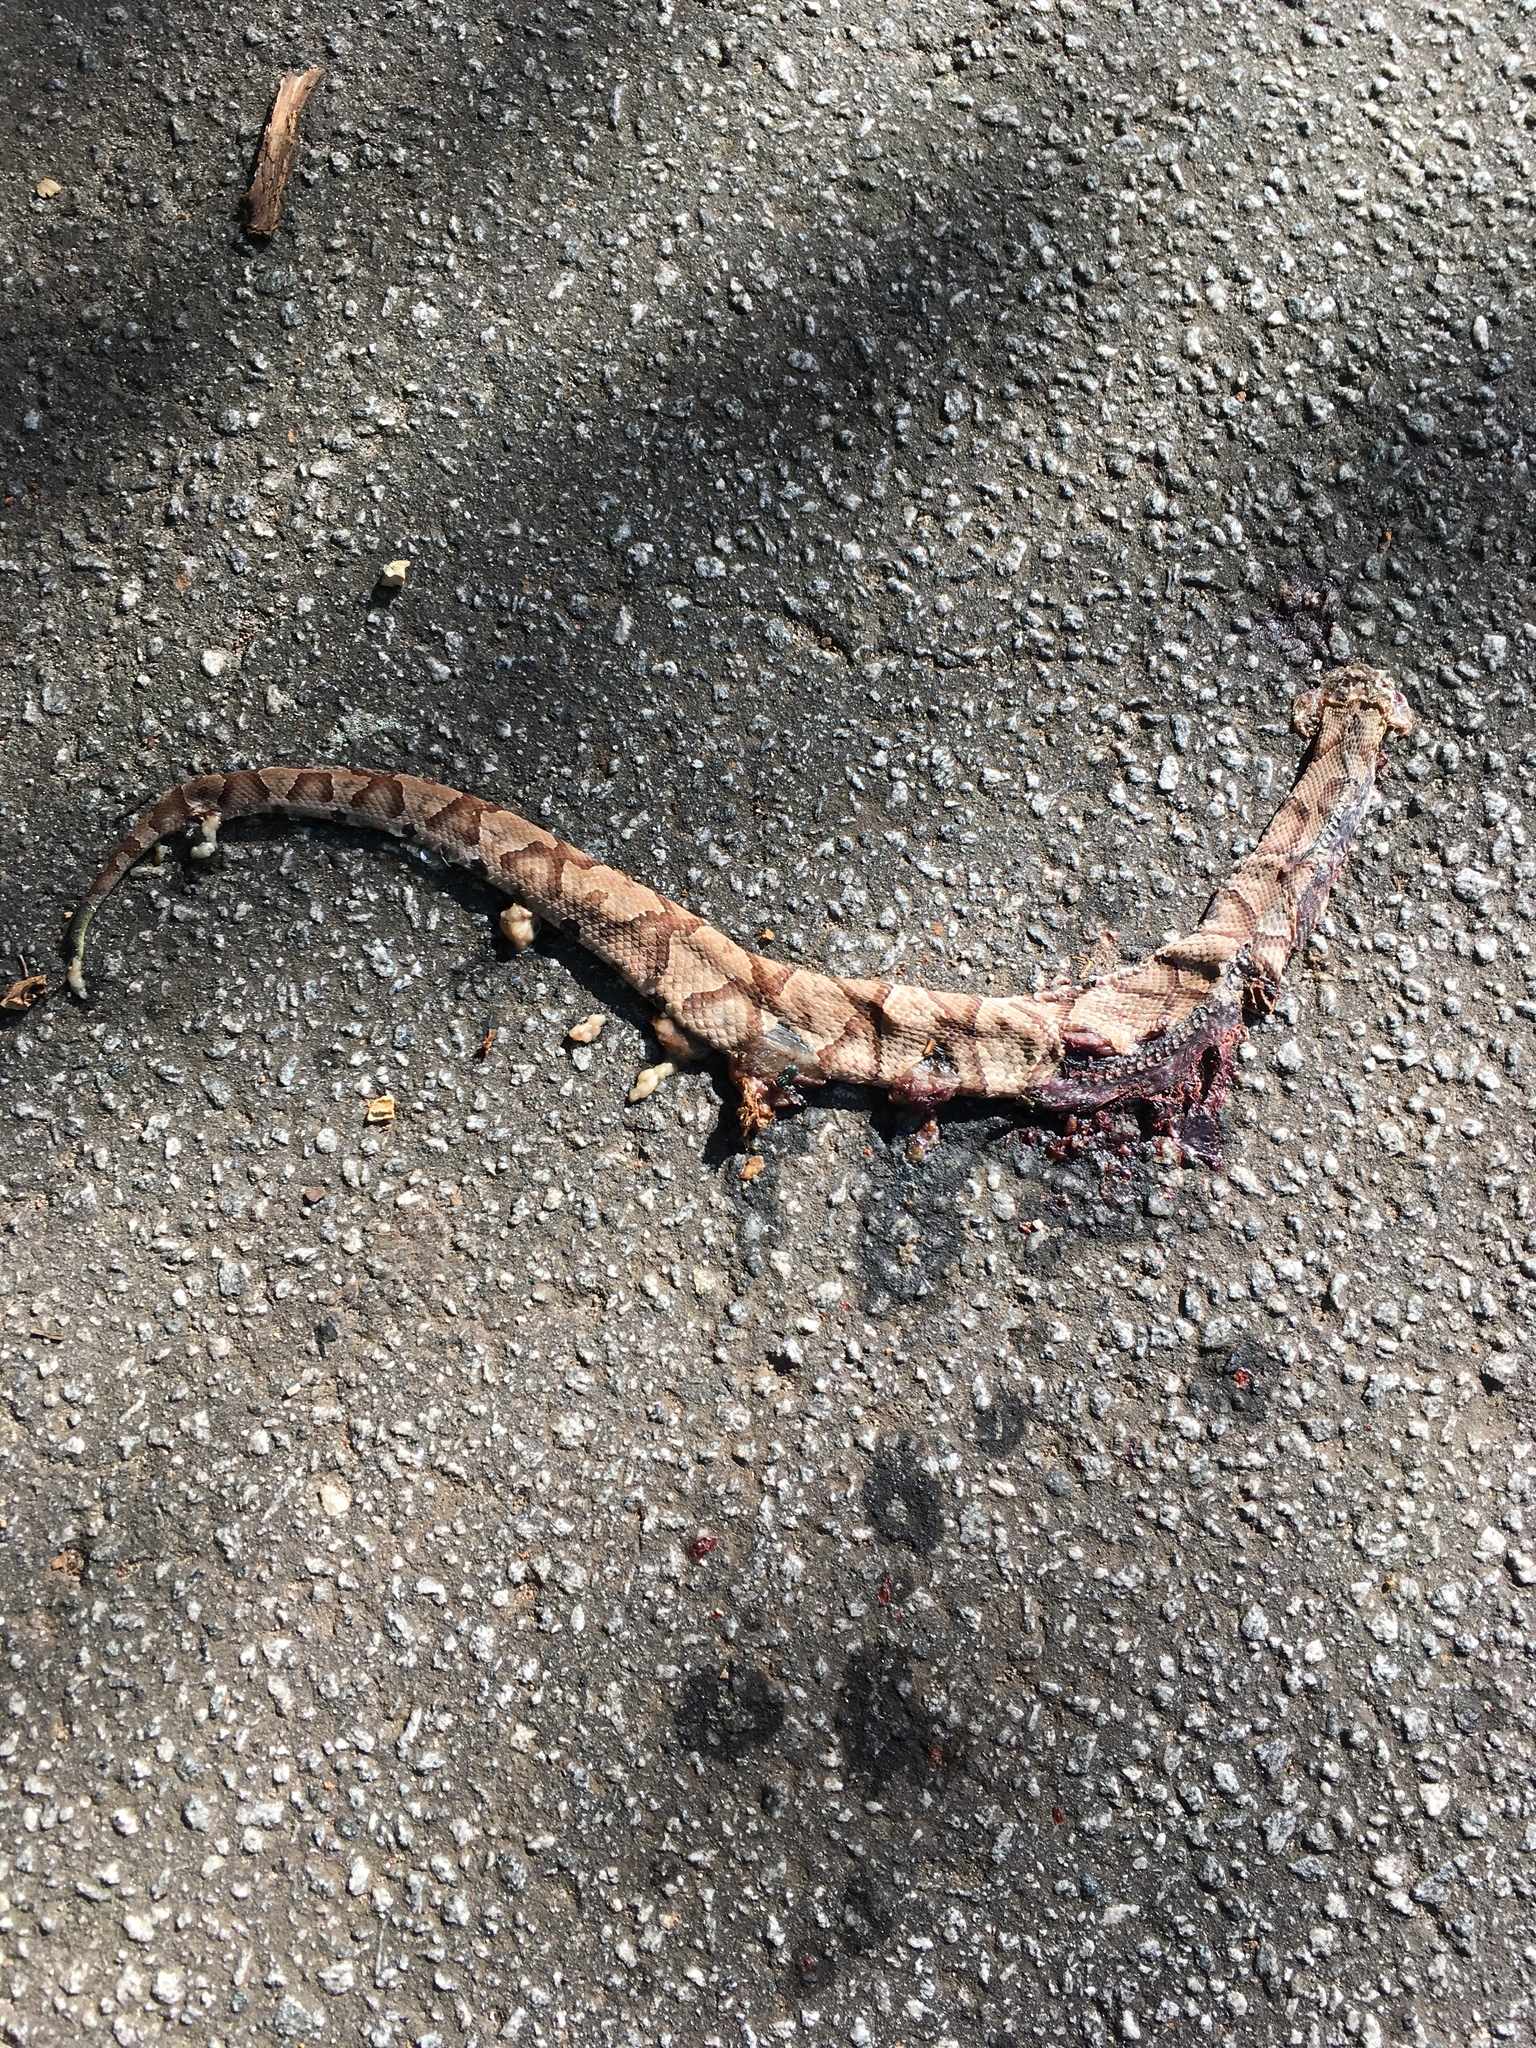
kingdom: Animalia
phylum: Chordata
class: Squamata
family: Viperidae
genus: Agkistrodon
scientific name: Agkistrodon contortrix
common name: Northern copperhead
